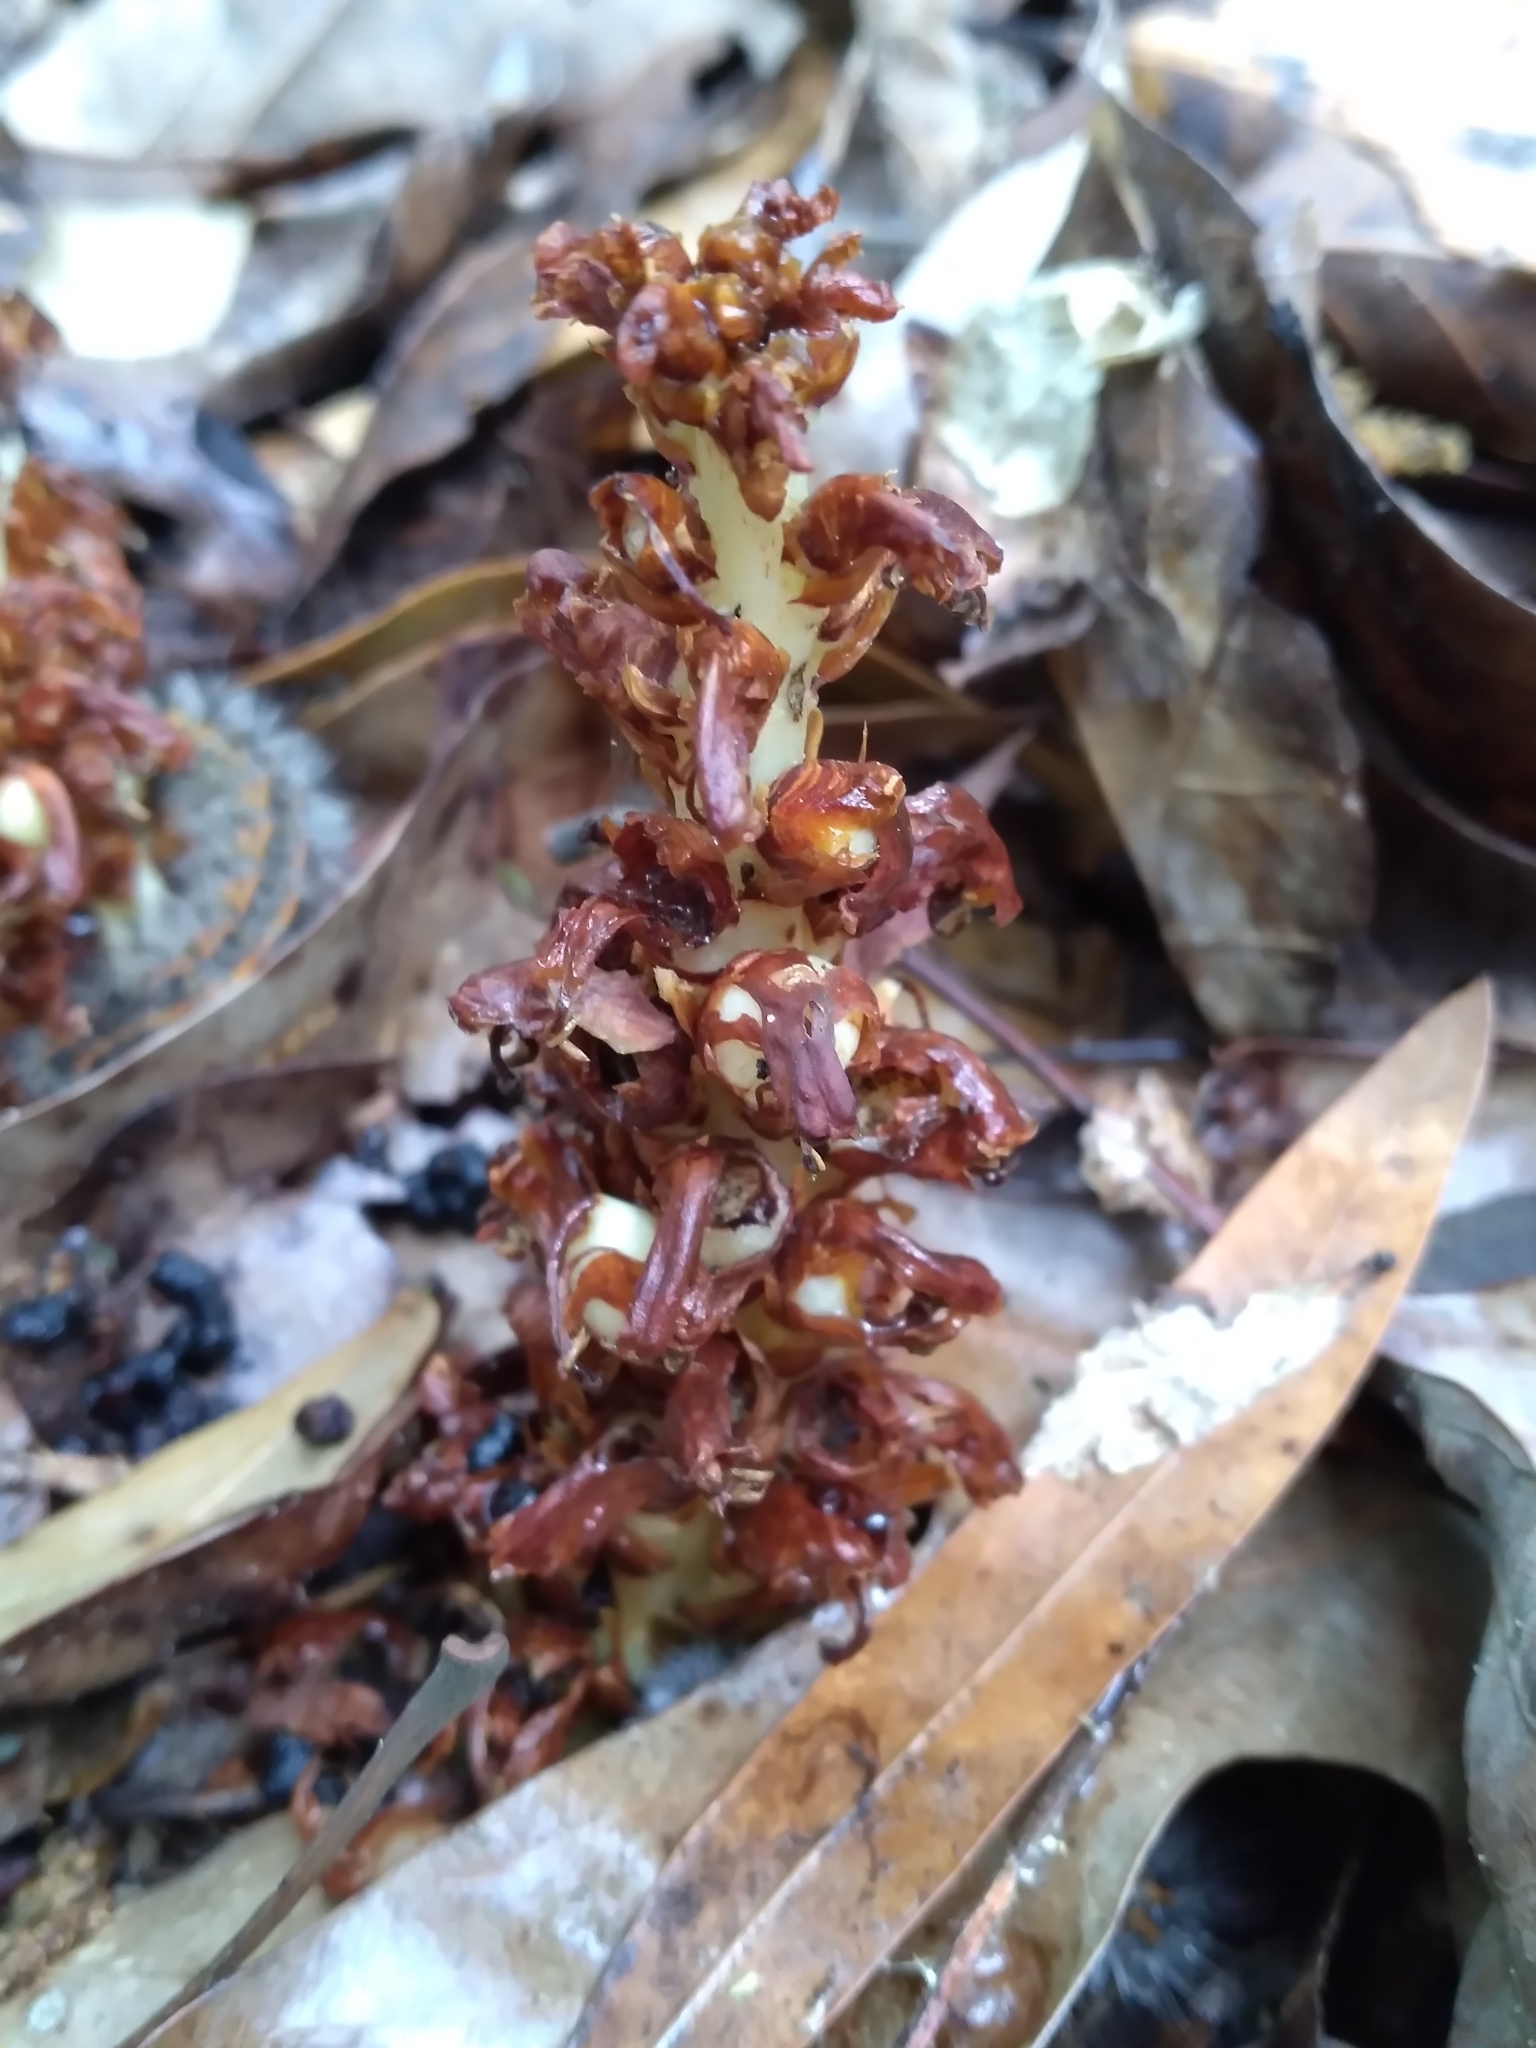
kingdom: Plantae
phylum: Tracheophyta
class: Magnoliopsida
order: Lamiales
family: Orobanchaceae
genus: Conopholis
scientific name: Conopholis americana
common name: American cancer-root
